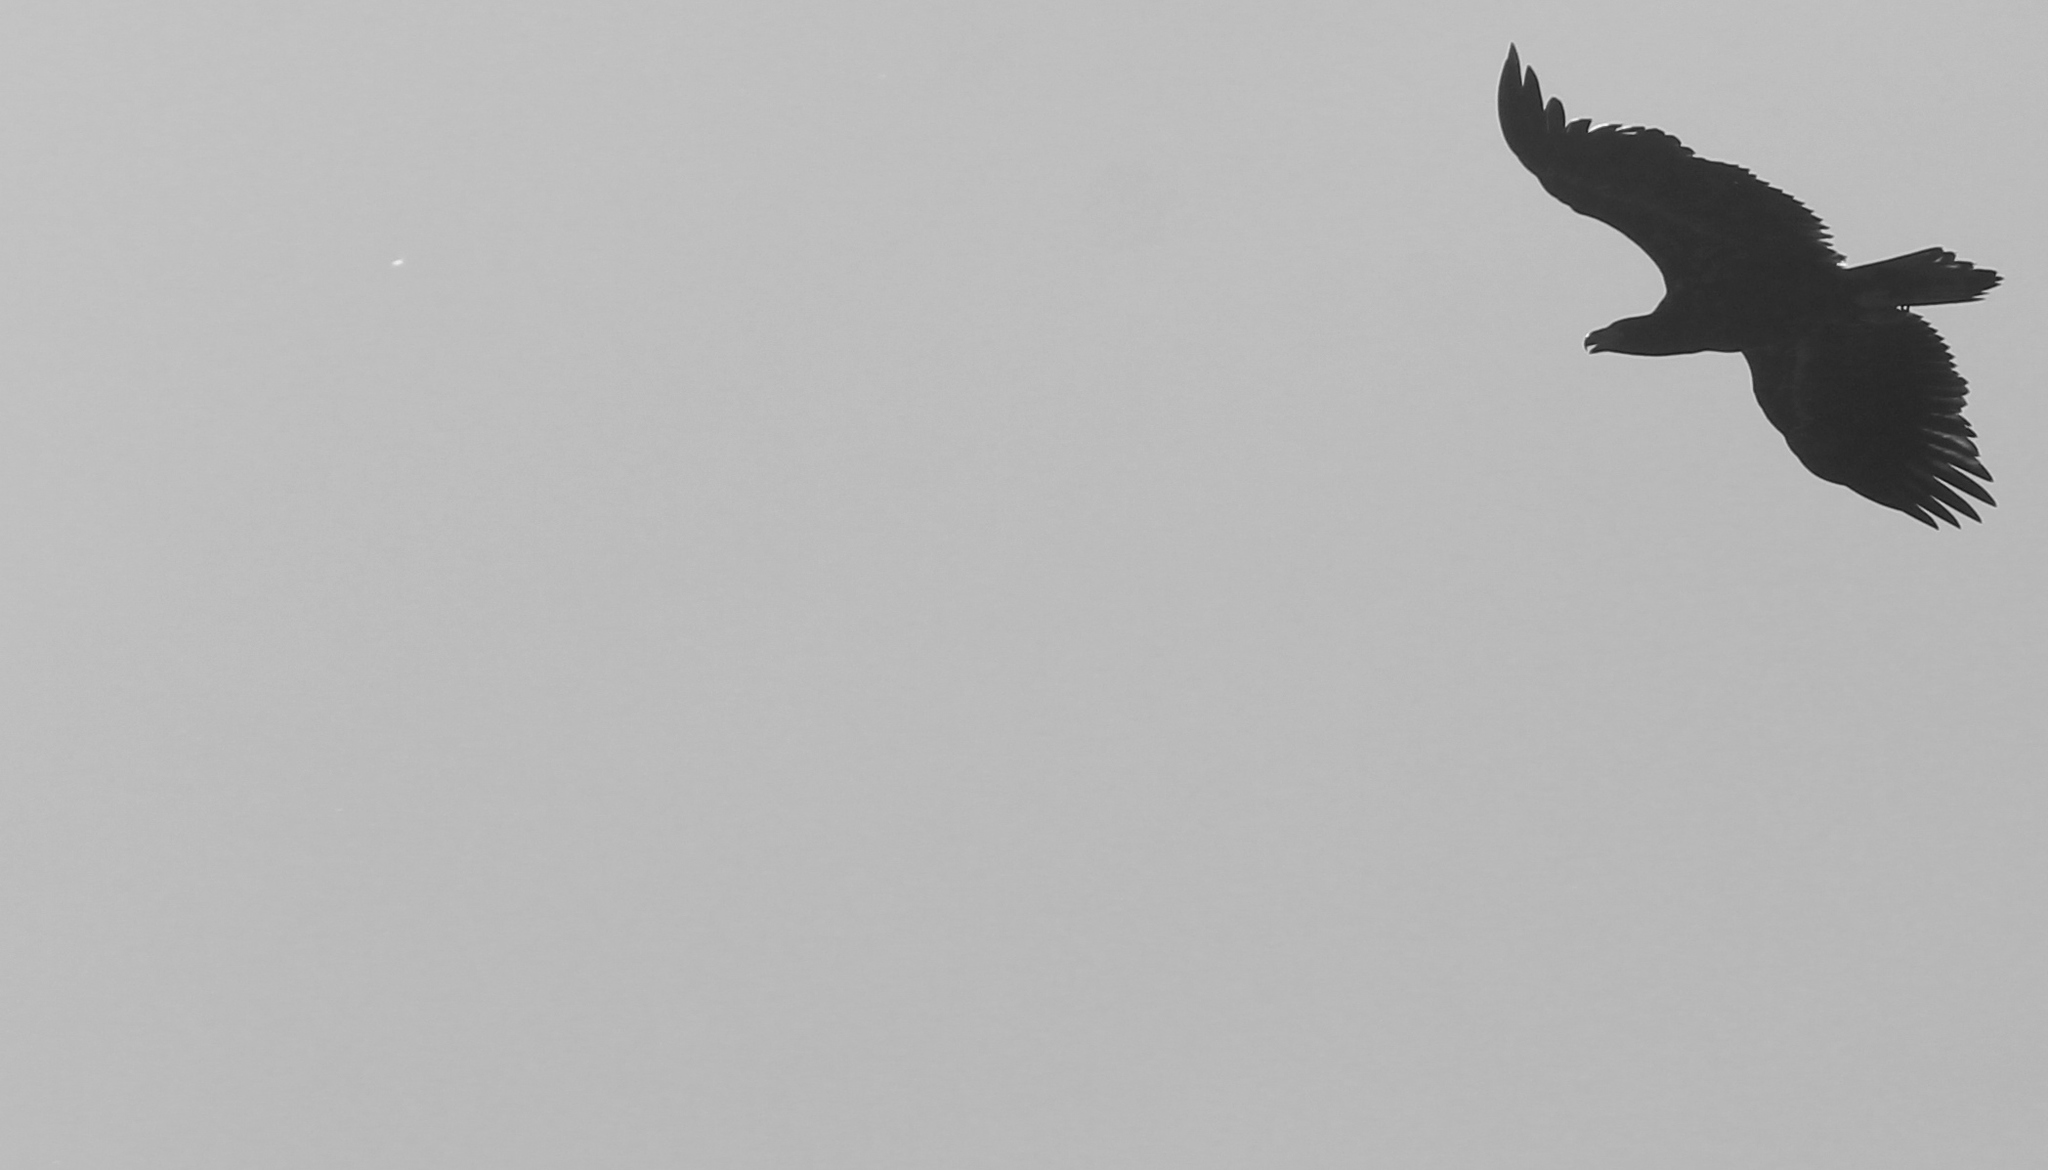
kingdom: Animalia
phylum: Chordata
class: Aves
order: Accipitriformes
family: Accipitridae
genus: Haliaeetus
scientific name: Haliaeetus albicilla
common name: White-tailed eagle
